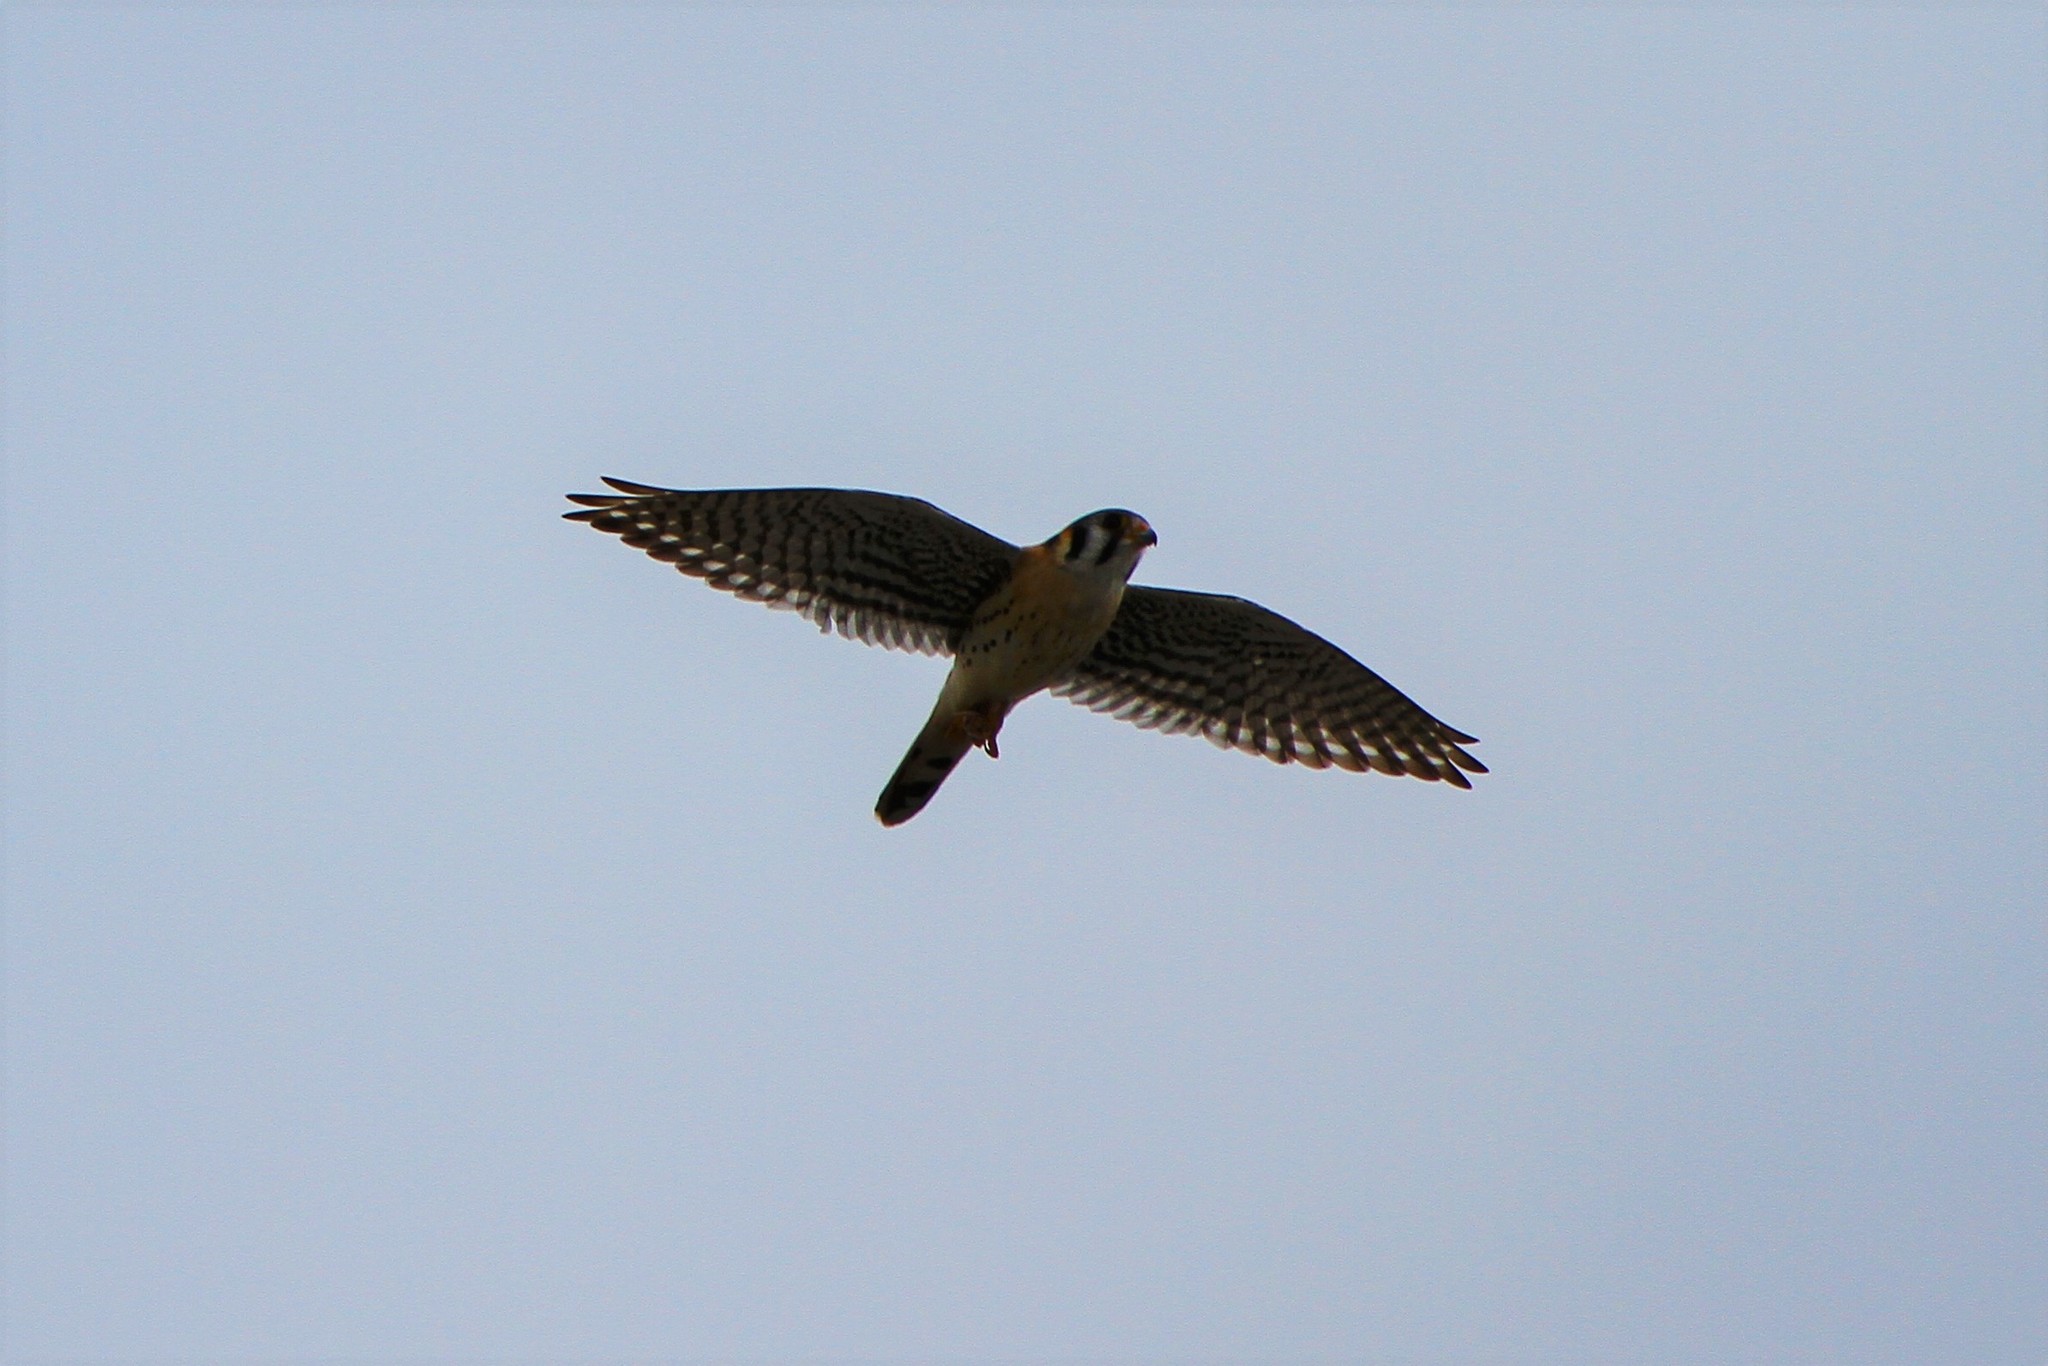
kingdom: Animalia
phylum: Chordata
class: Aves
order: Falconiformes
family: Falconidae
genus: Falco
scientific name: Falco sparverius
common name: American kestrel
